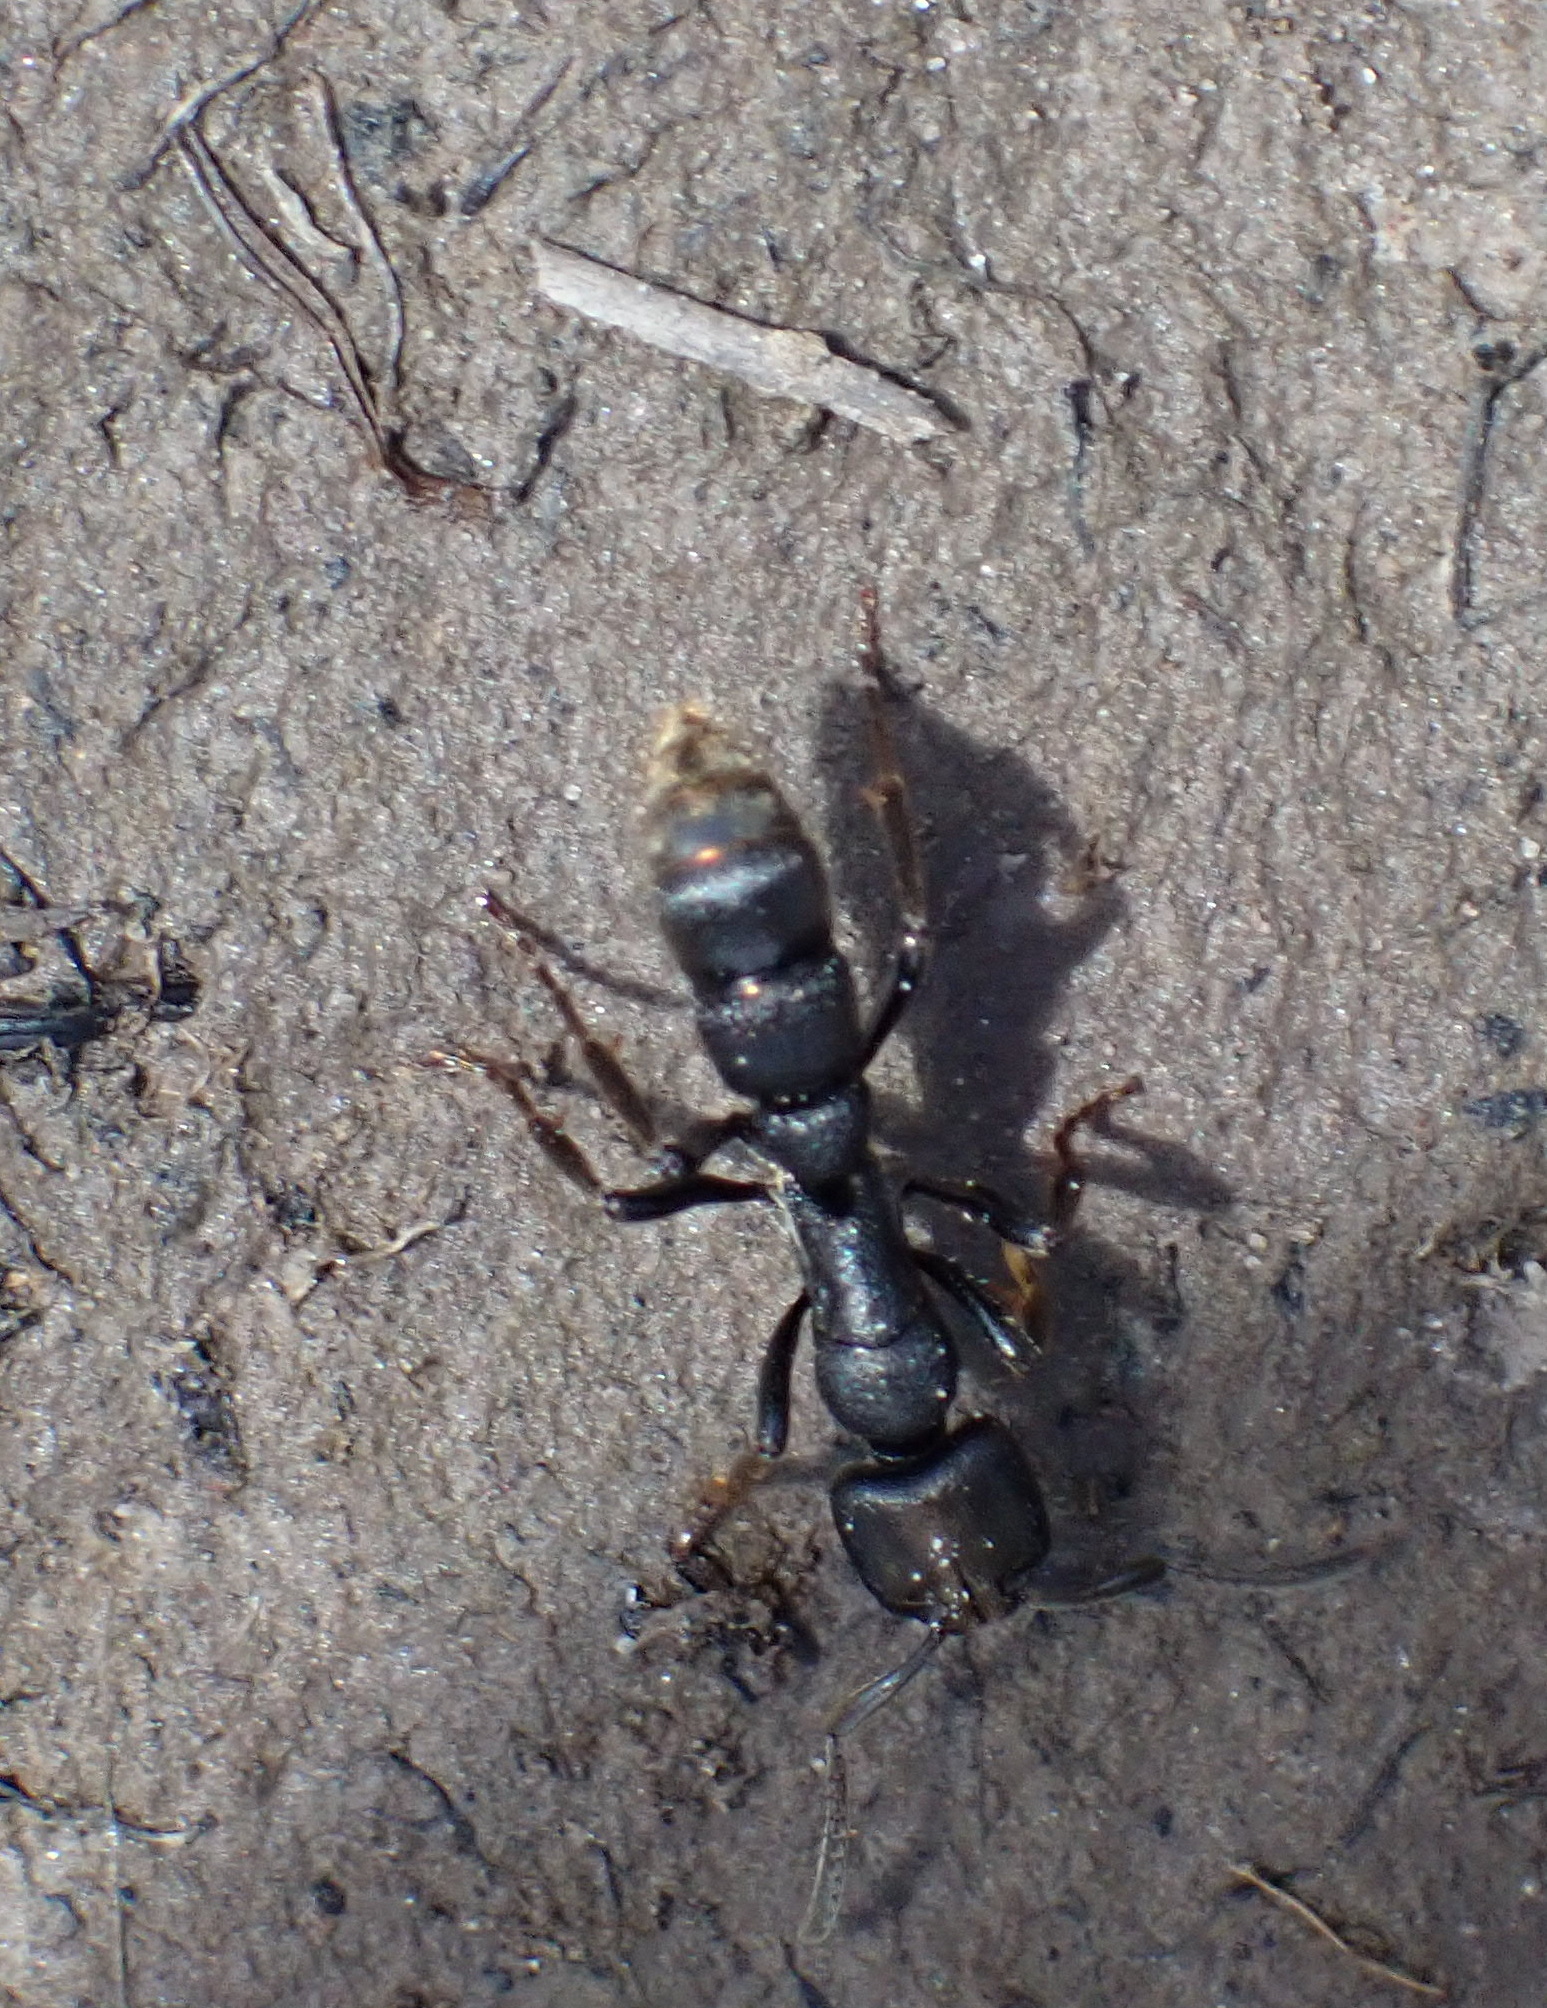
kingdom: Animalia
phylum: Arthropoda
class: Insecta
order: Hymenoptera
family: Formicidae
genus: Bothroponera
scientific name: Bothroponera laevissima
